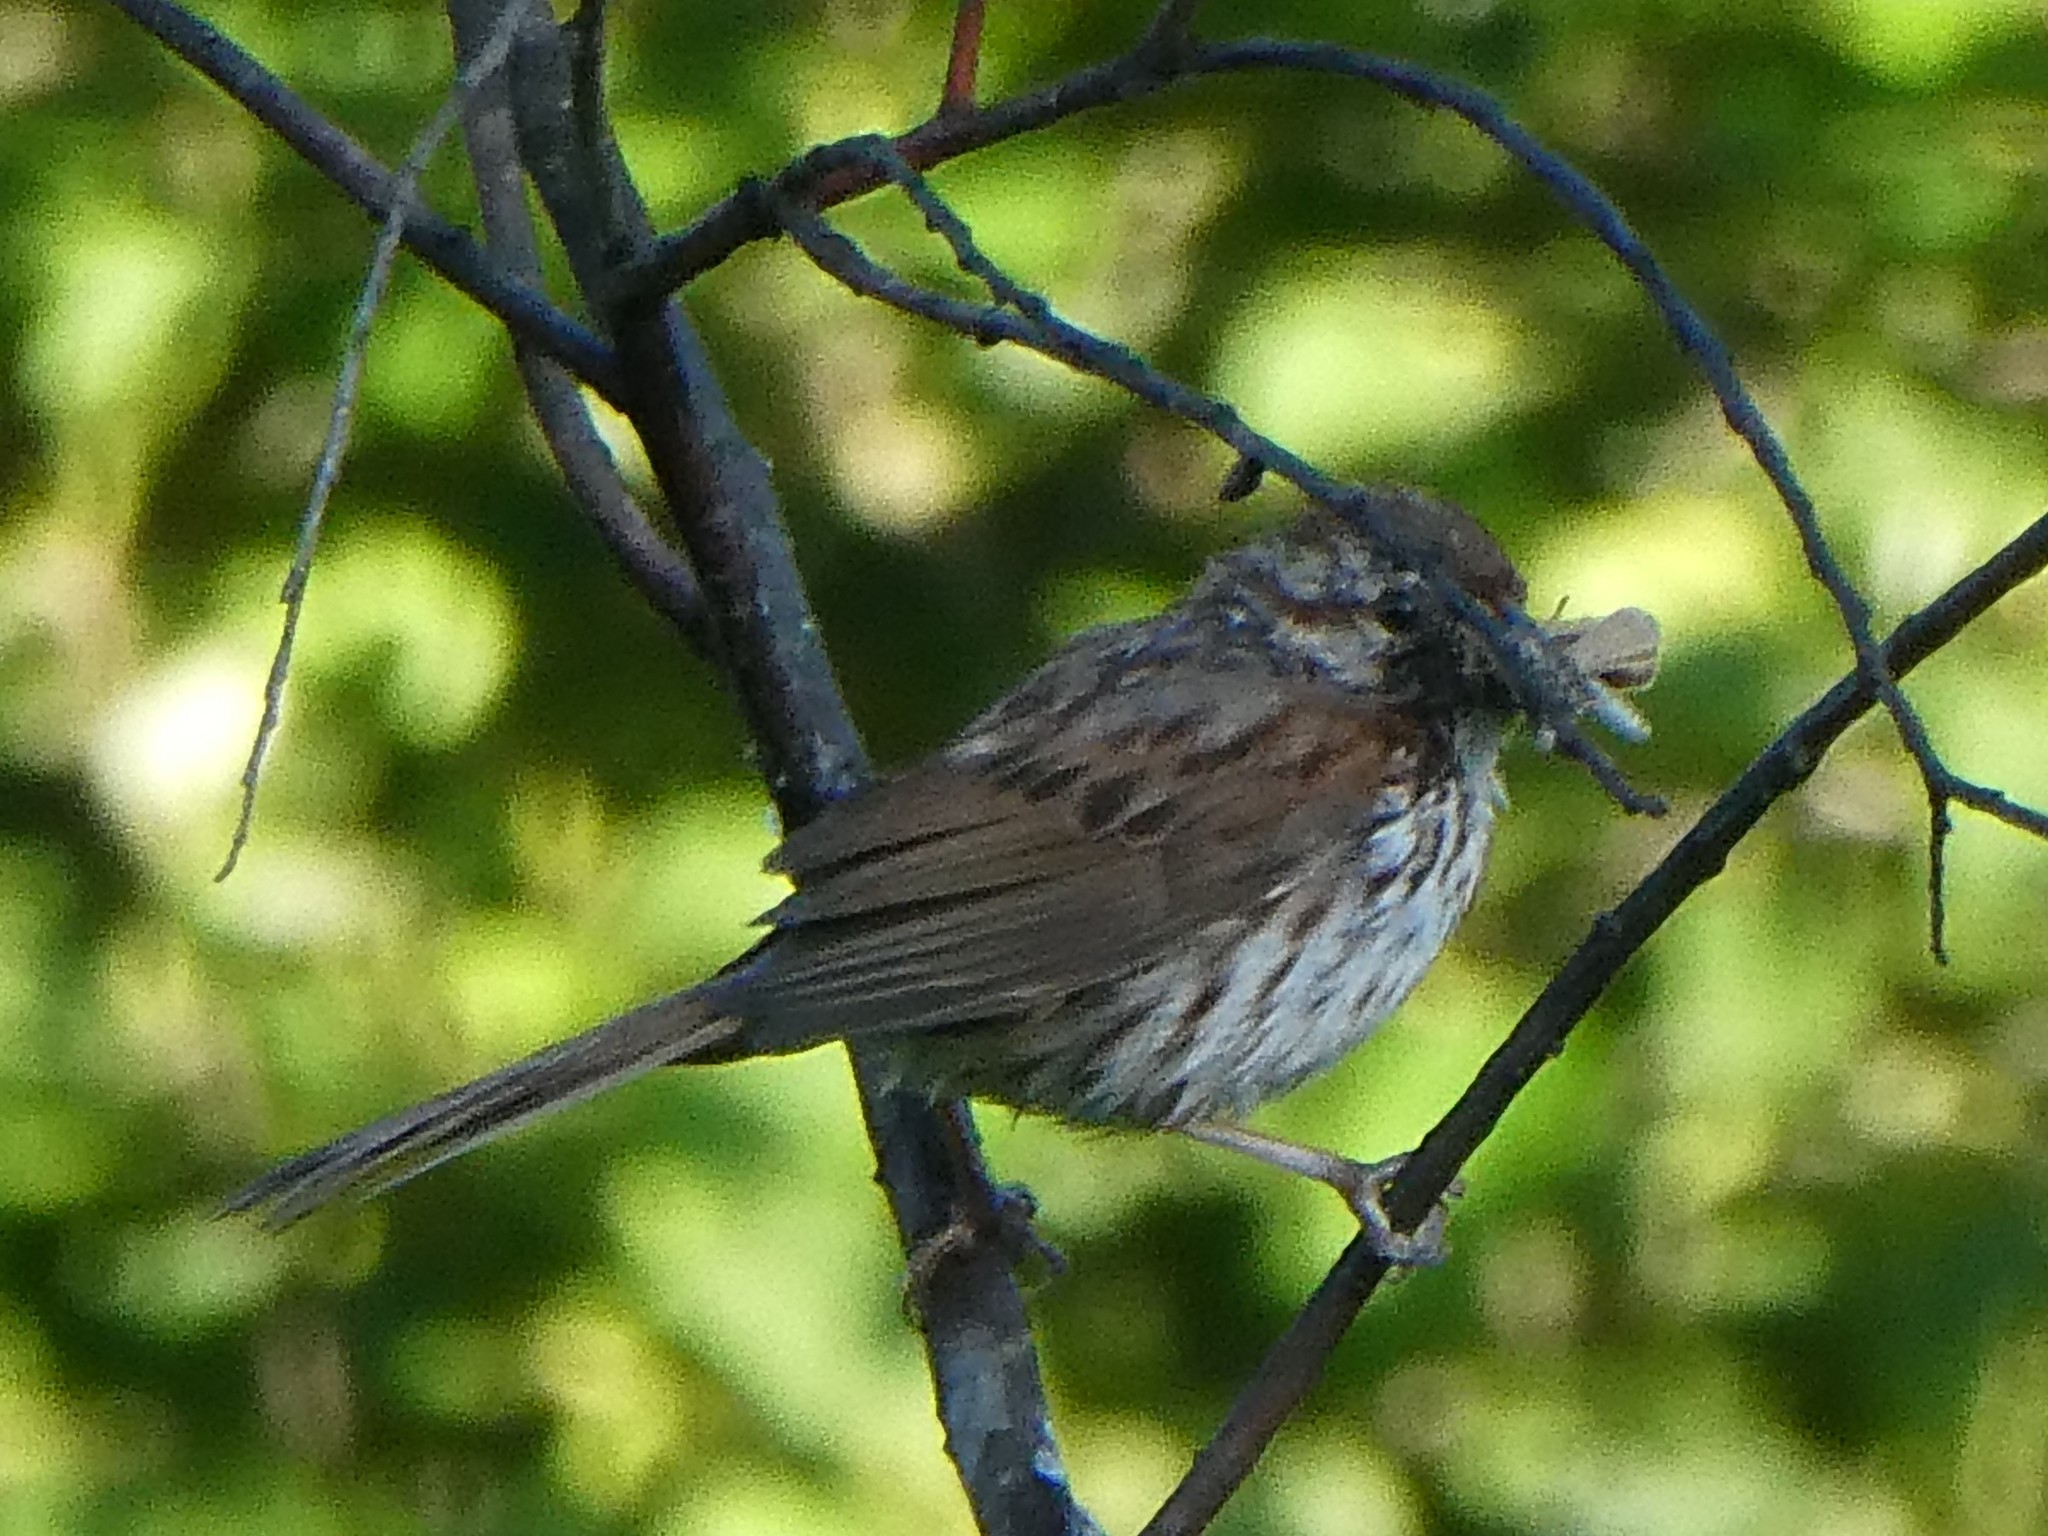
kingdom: Animalia
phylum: Chordata
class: Aves
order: Passeriformes
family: Passerellidae
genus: Melospiza
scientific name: Melospiza melodia
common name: Song sparrow
